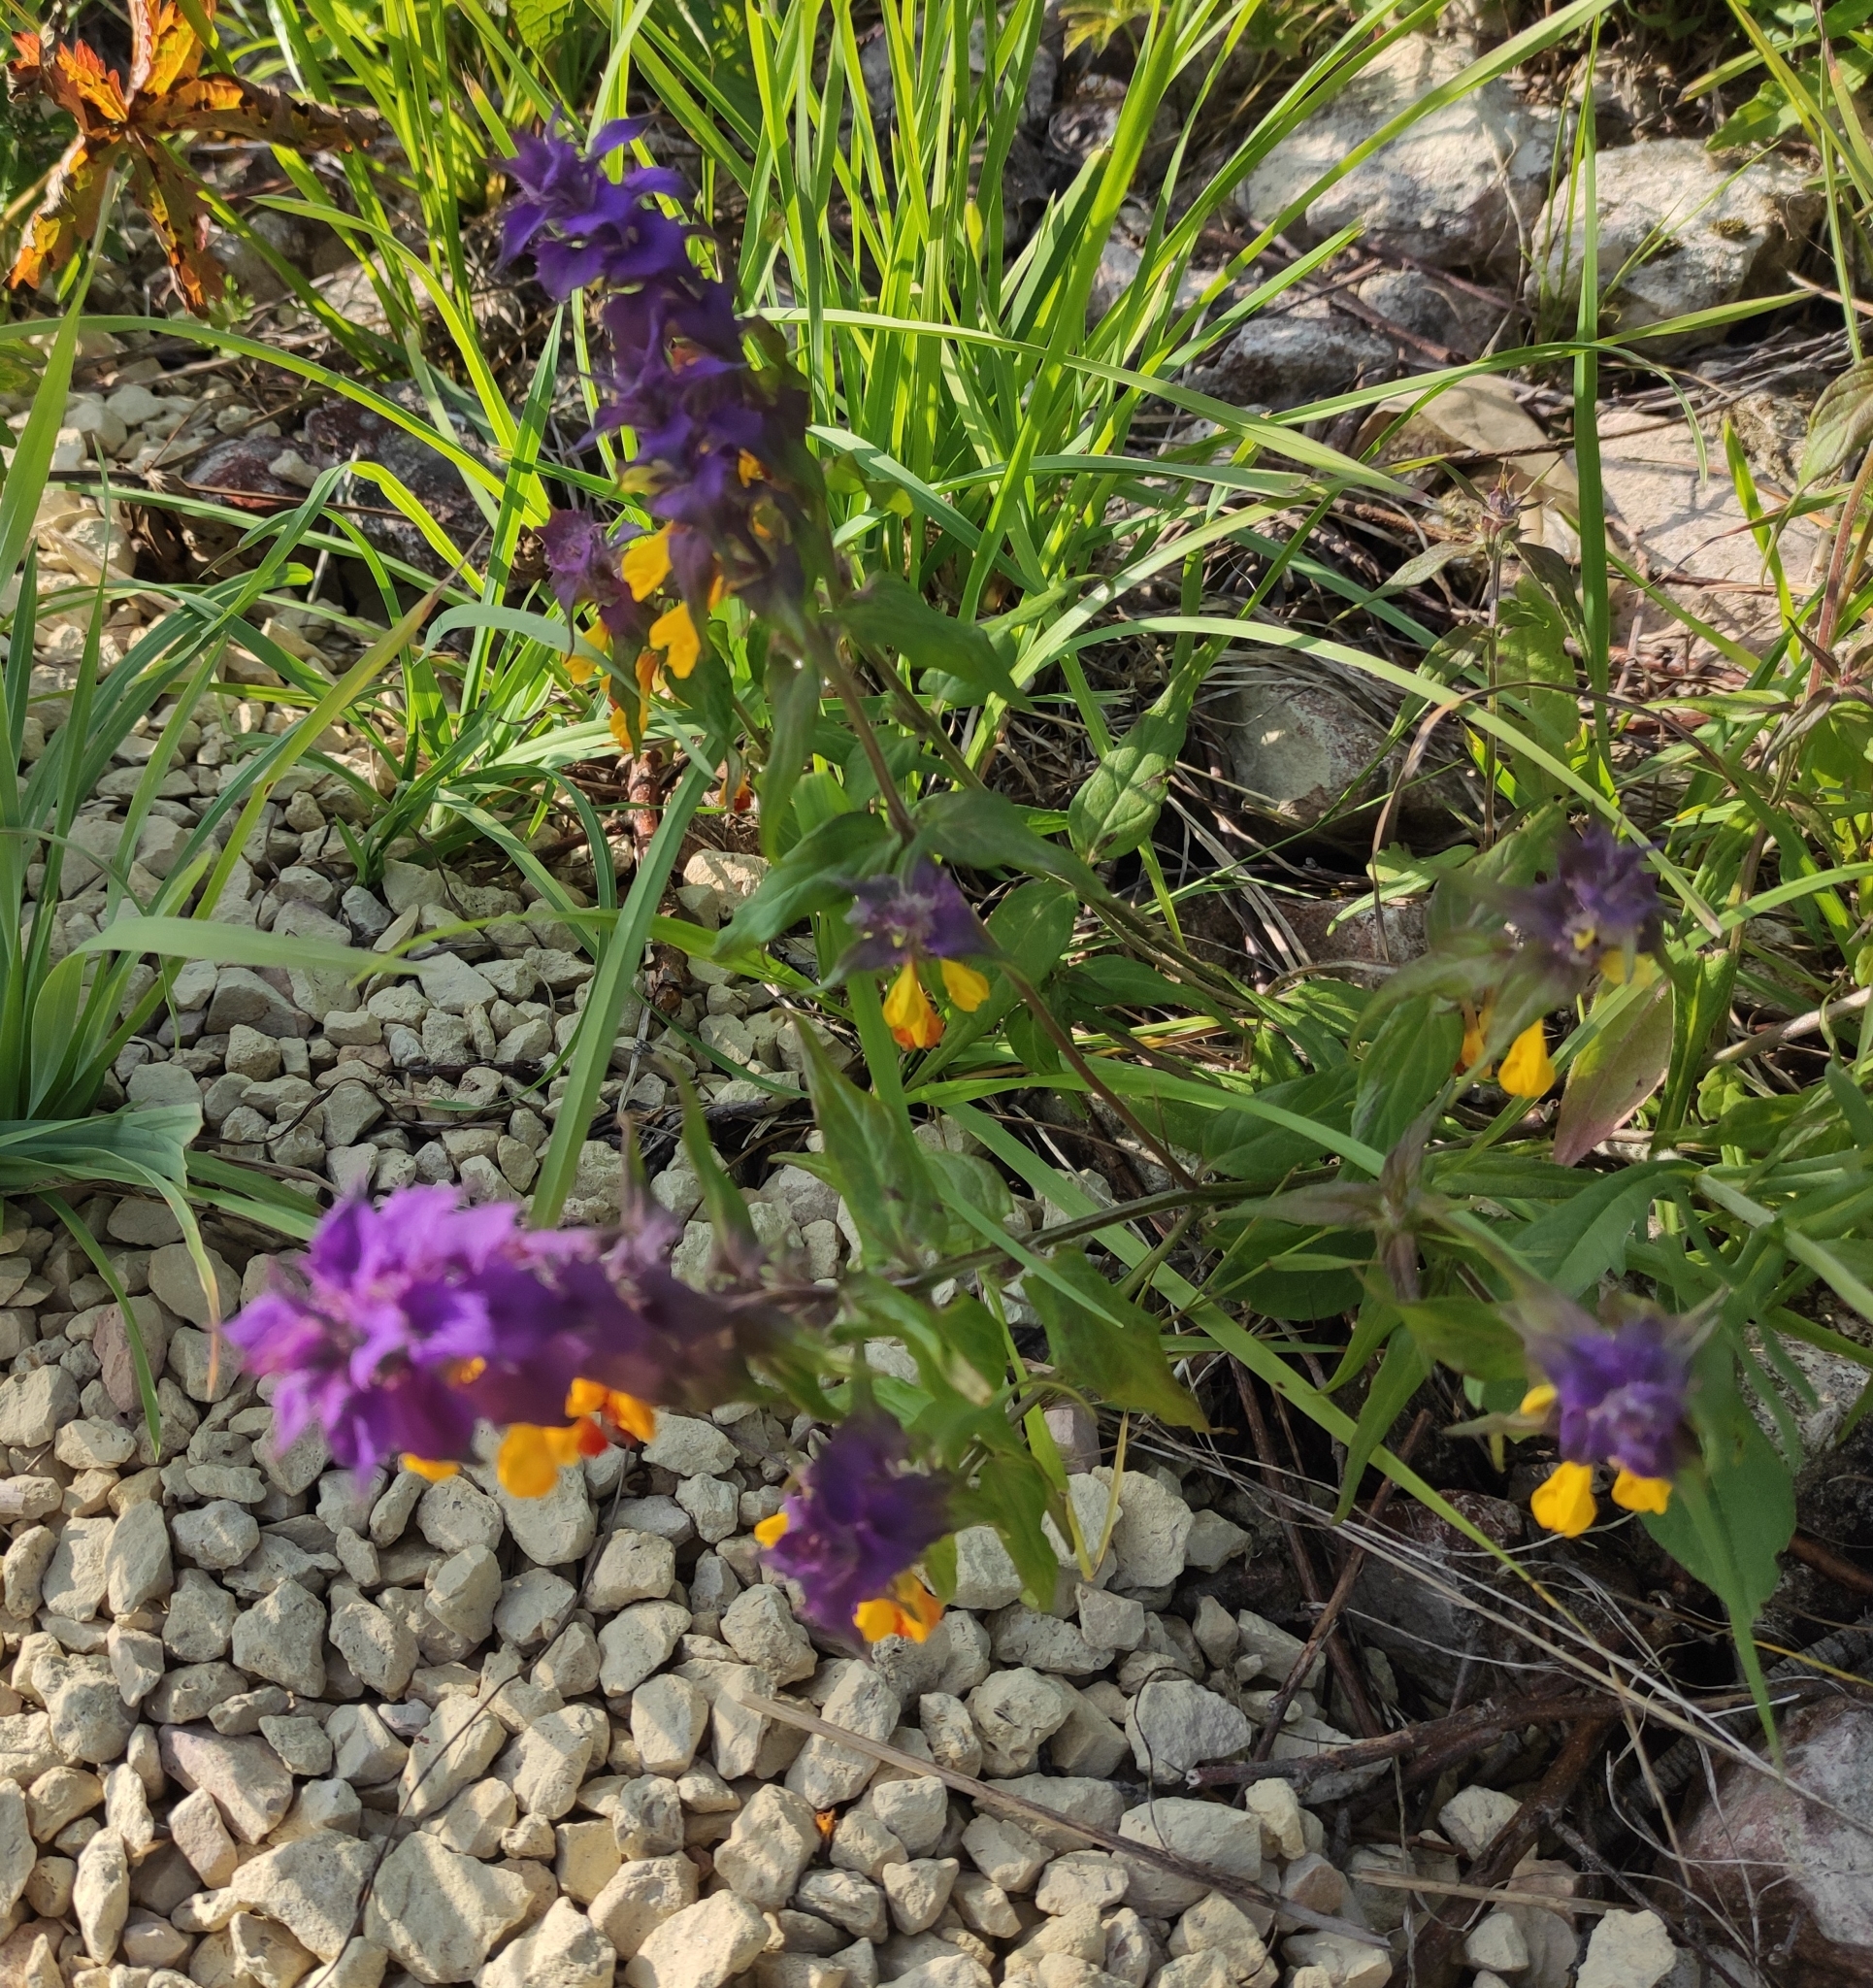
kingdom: Plantae
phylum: Tracheophyta
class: Magnoliopsida
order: Lamiales
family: Orobanchaceae
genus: Melampyrum
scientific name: Melampyrum nemorosum
